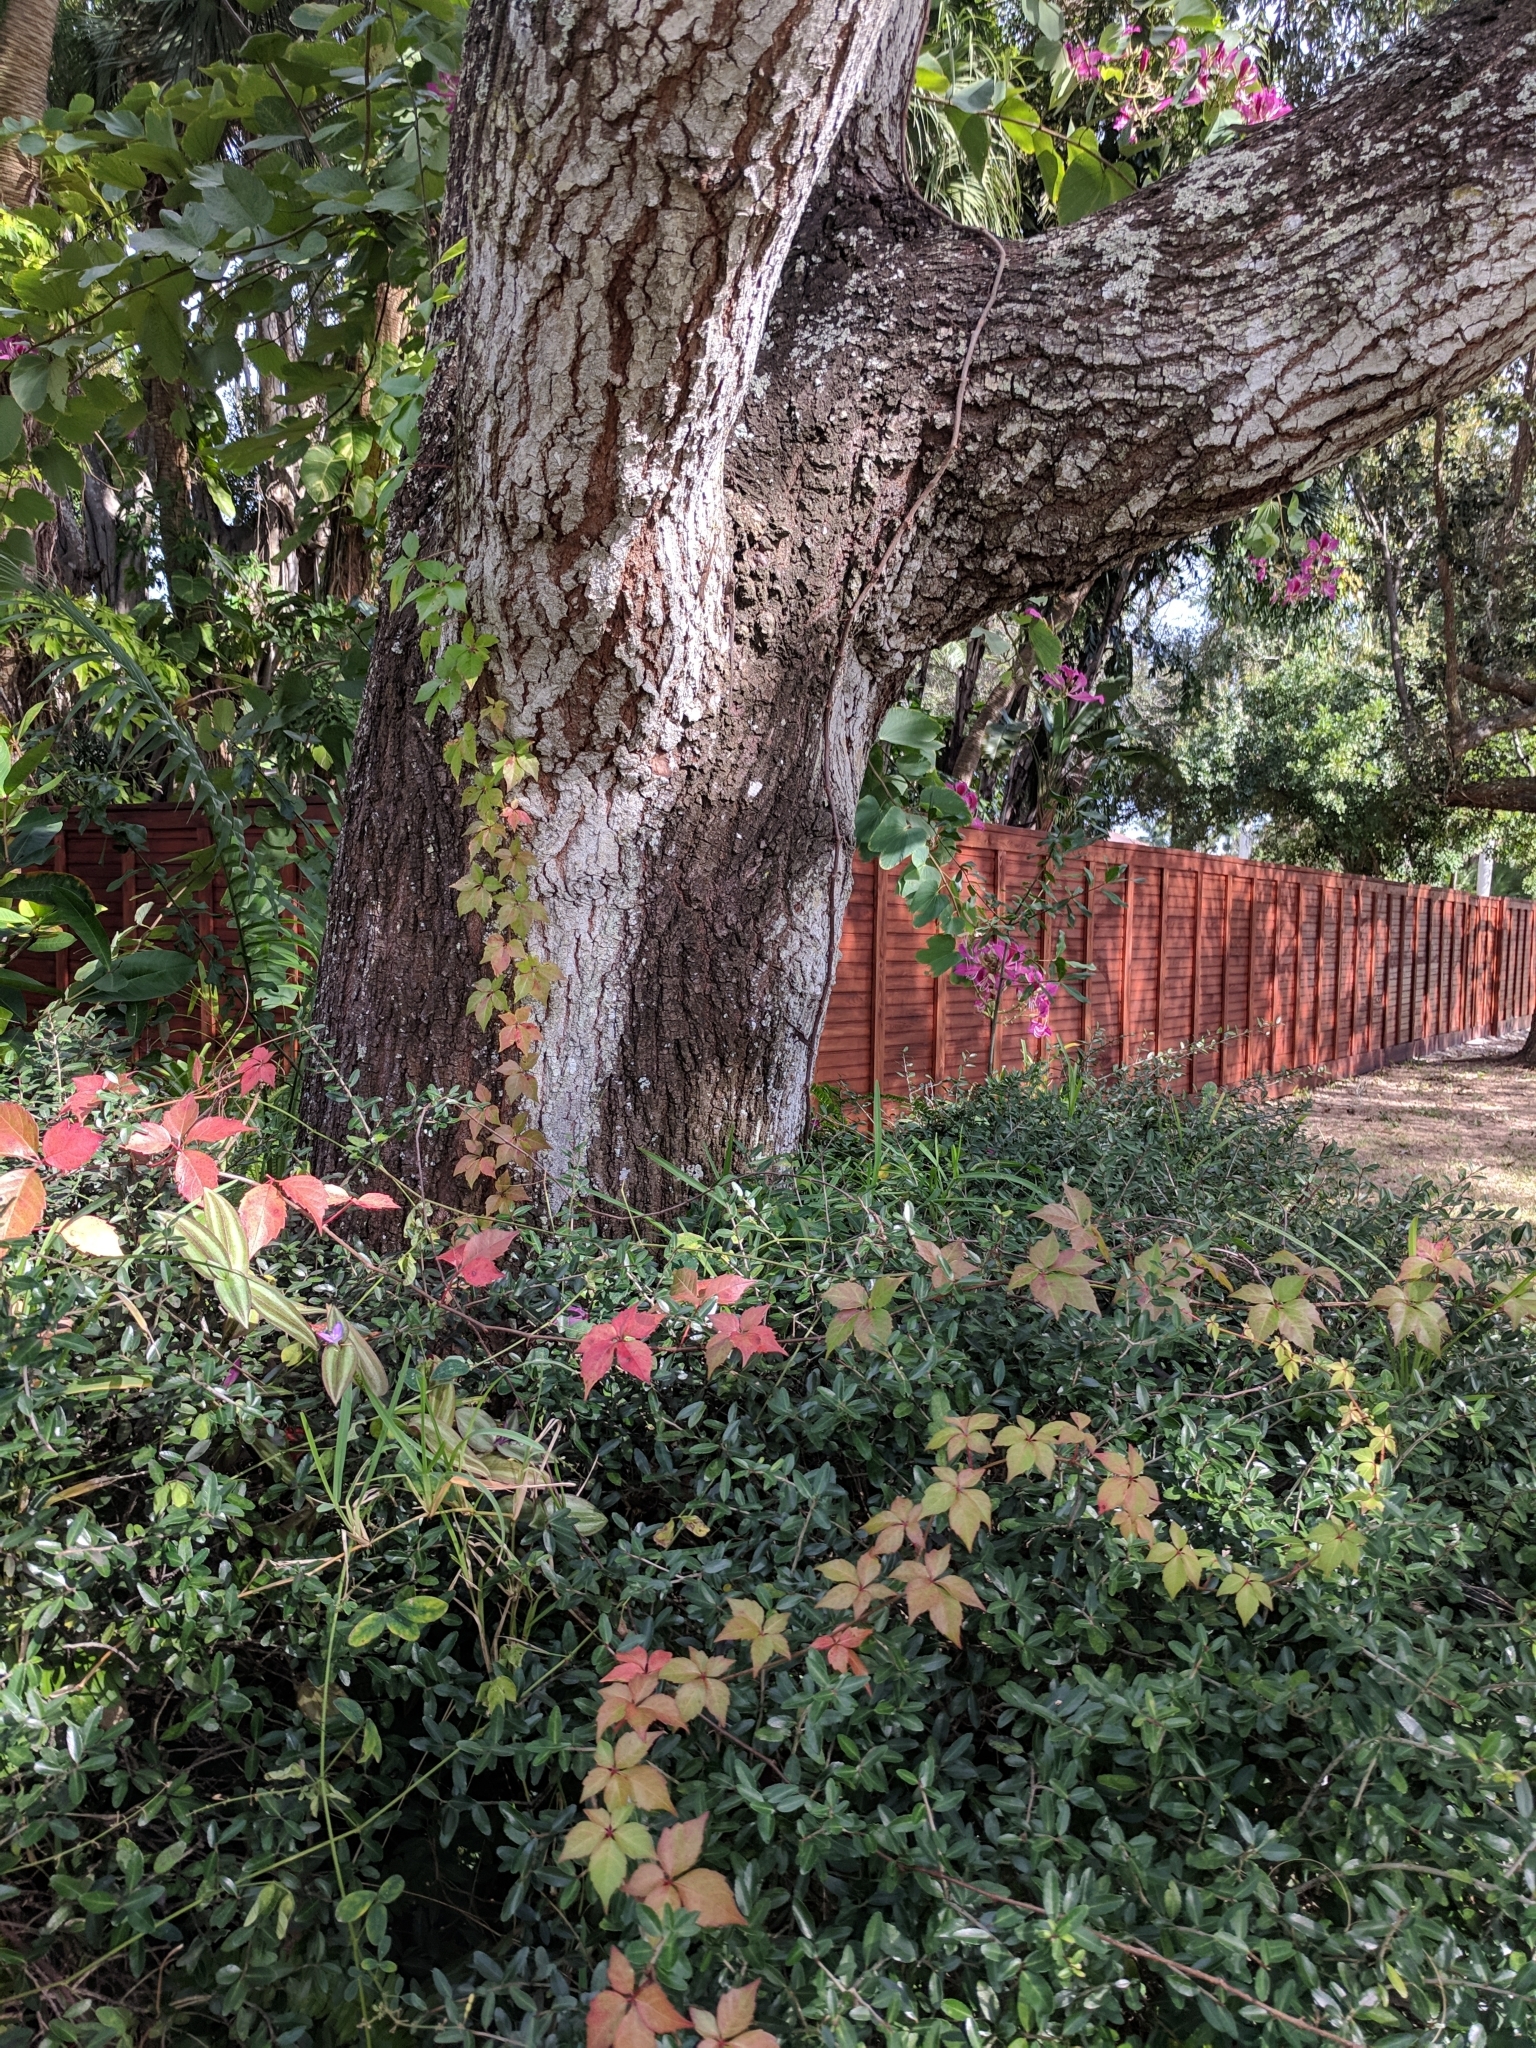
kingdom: Plantae
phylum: Tracheophyta
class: Magnoliopsida
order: Vitales
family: Vitaceae
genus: Parthenocissus
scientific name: Parthenocissus quinquefolia
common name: Virginia-creeper
